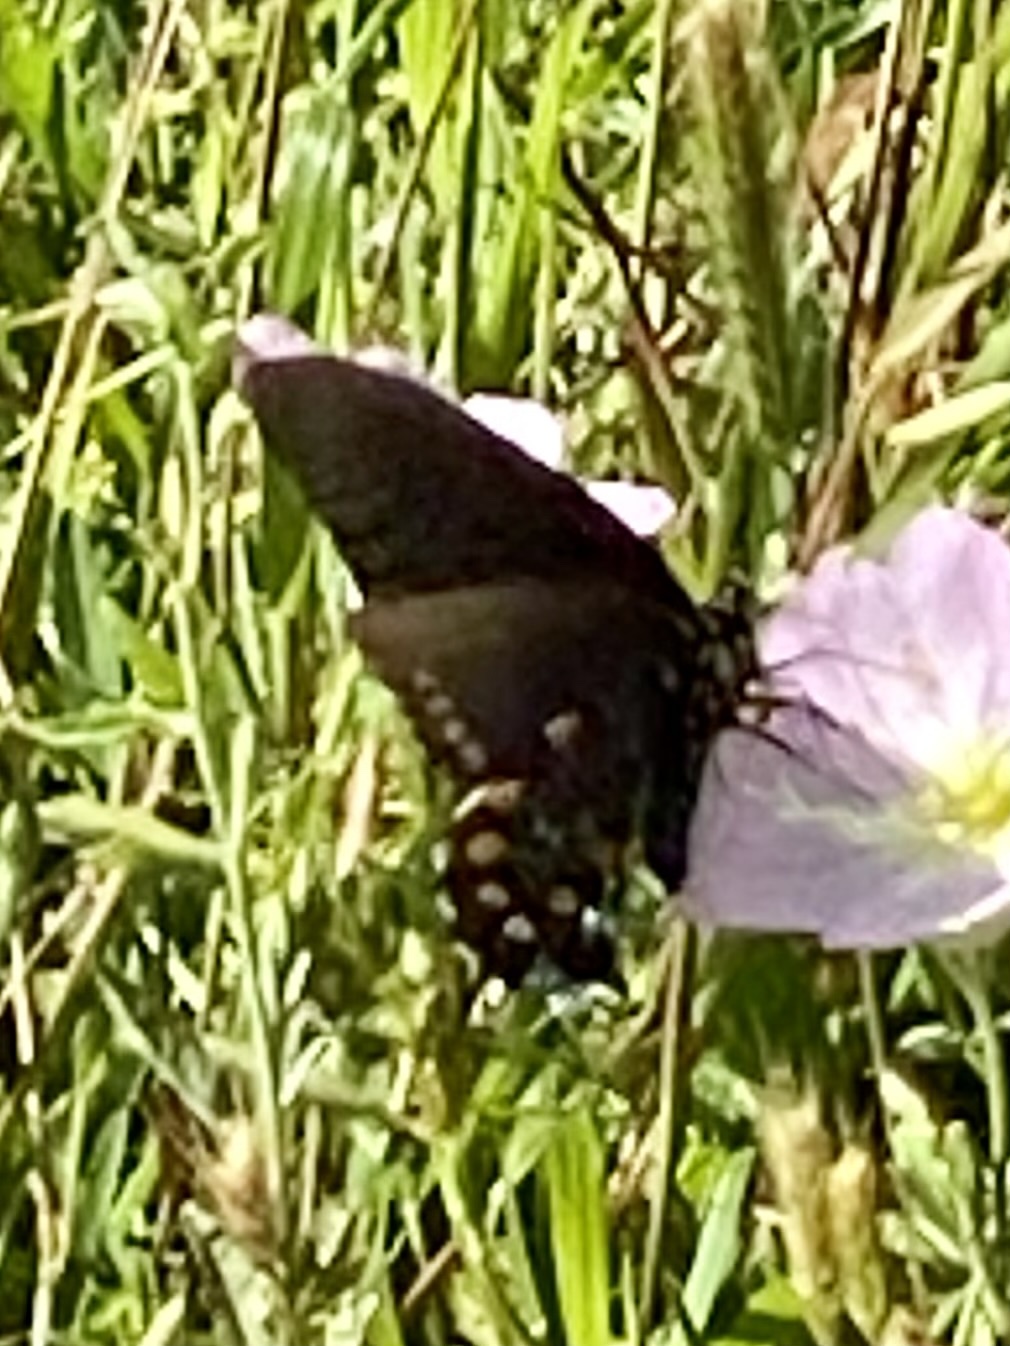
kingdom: Animalia
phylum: Arthropoda
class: Insecta
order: Lepidoptera
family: Papilionidae
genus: Battus
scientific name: Battus philenor
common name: Pipevine swallowtail
